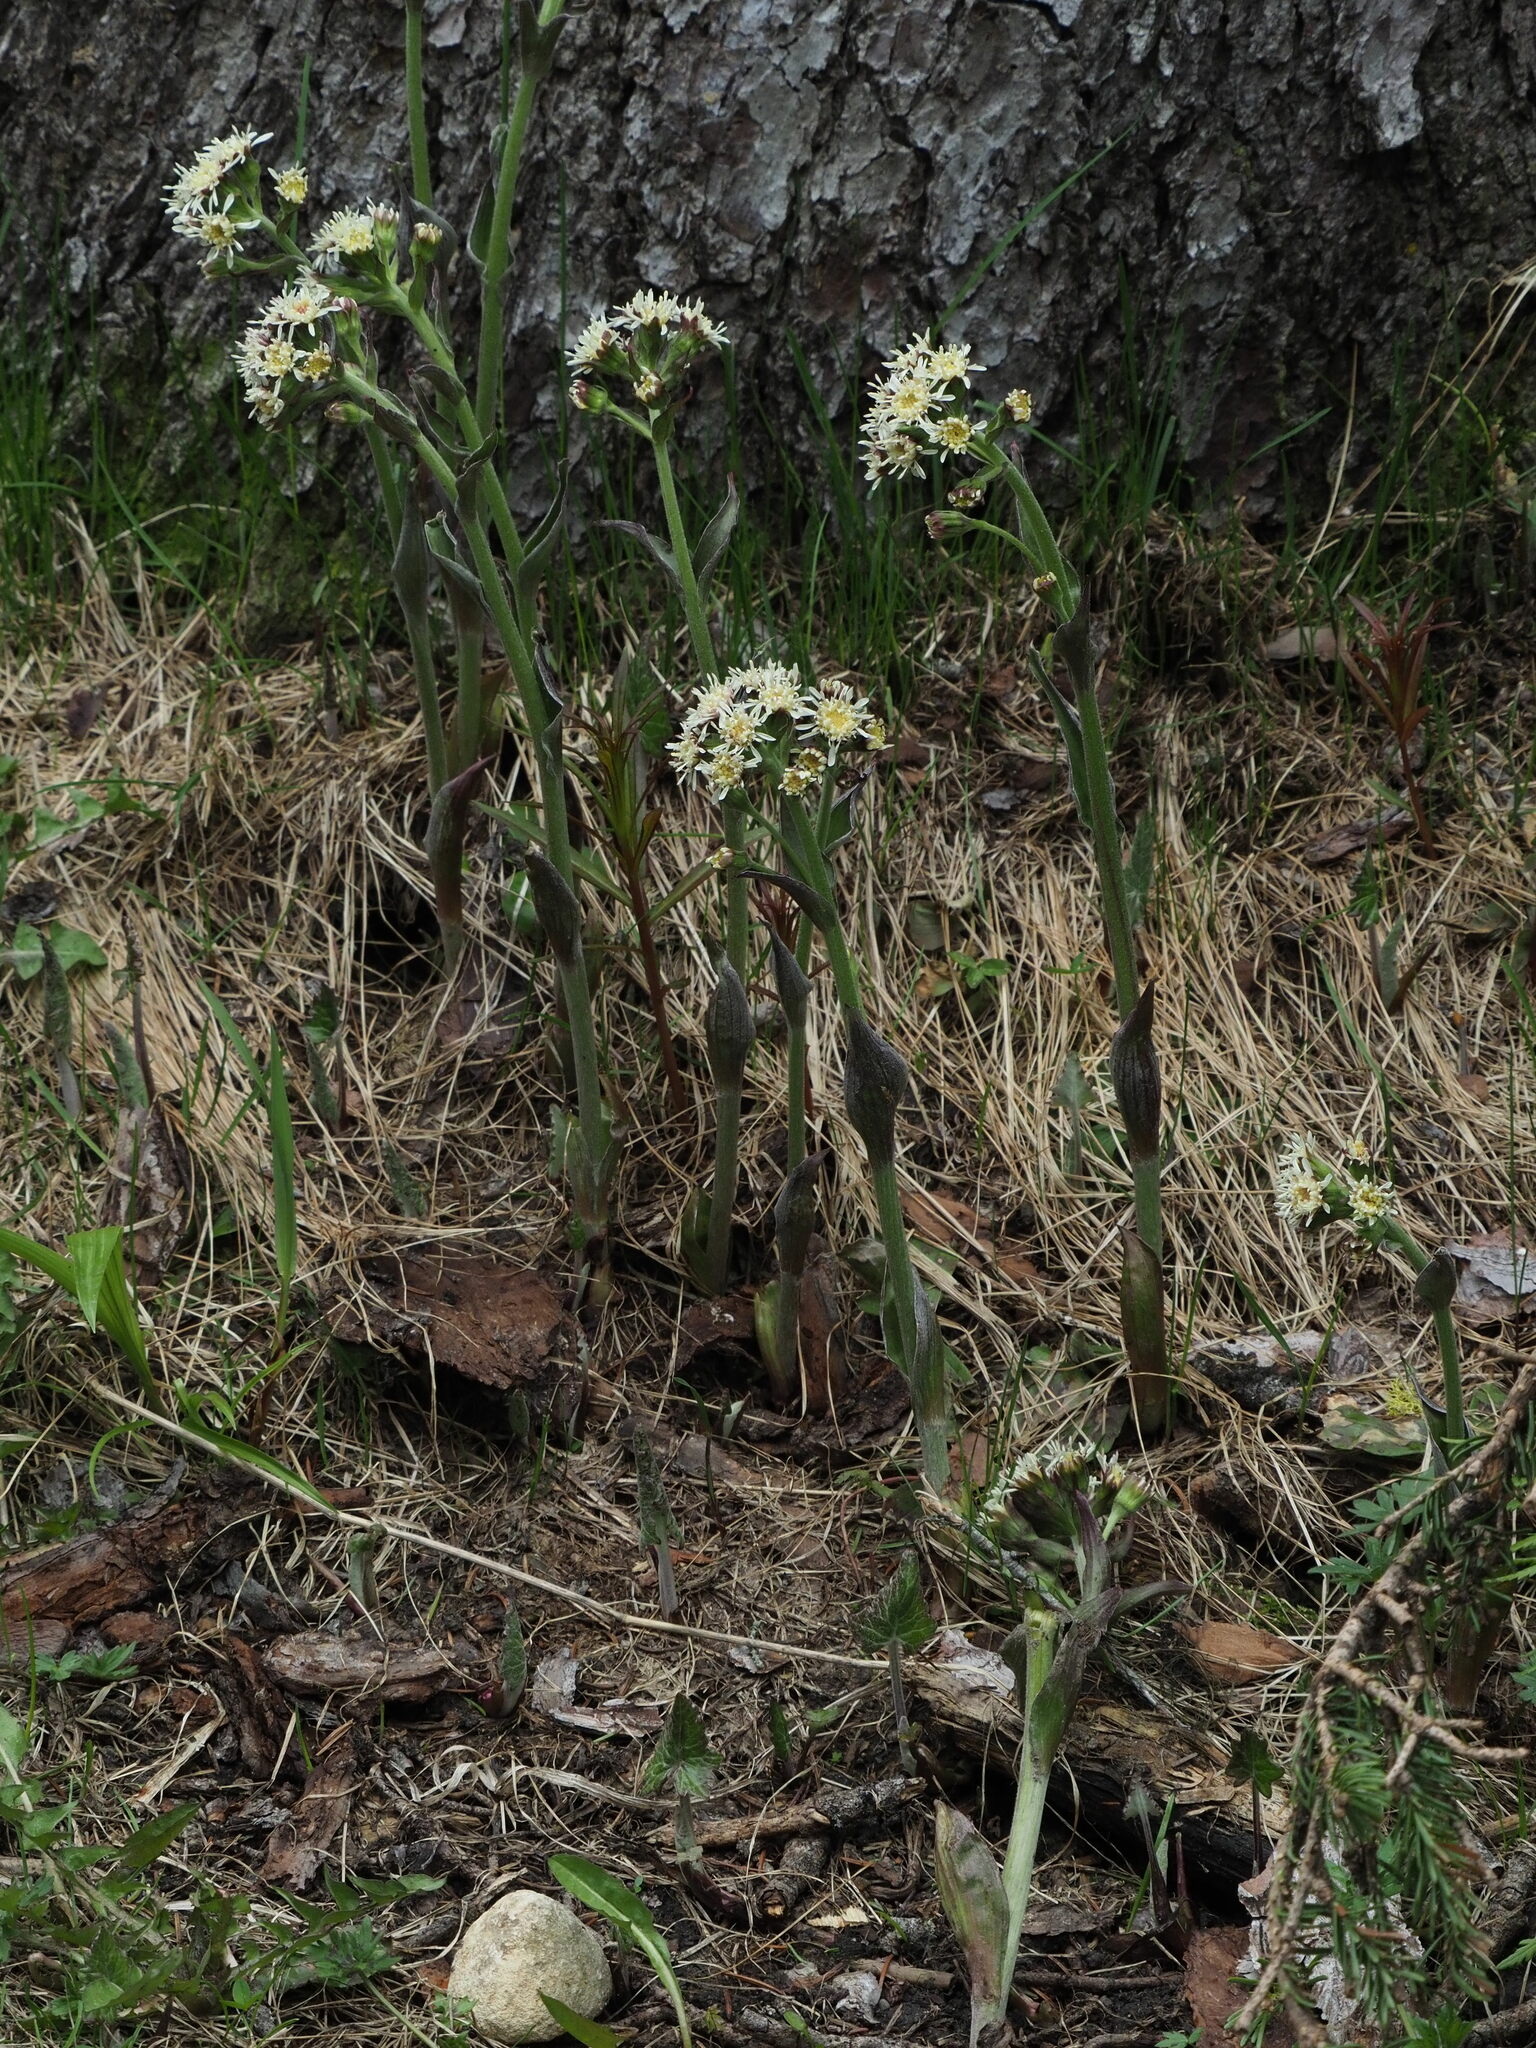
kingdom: Plantae
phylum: Tracheophyta
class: Magnoliopsida
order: Asterales
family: Asteraceae
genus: Petasites
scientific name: Petasites frigidus
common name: Arctic butterbur
